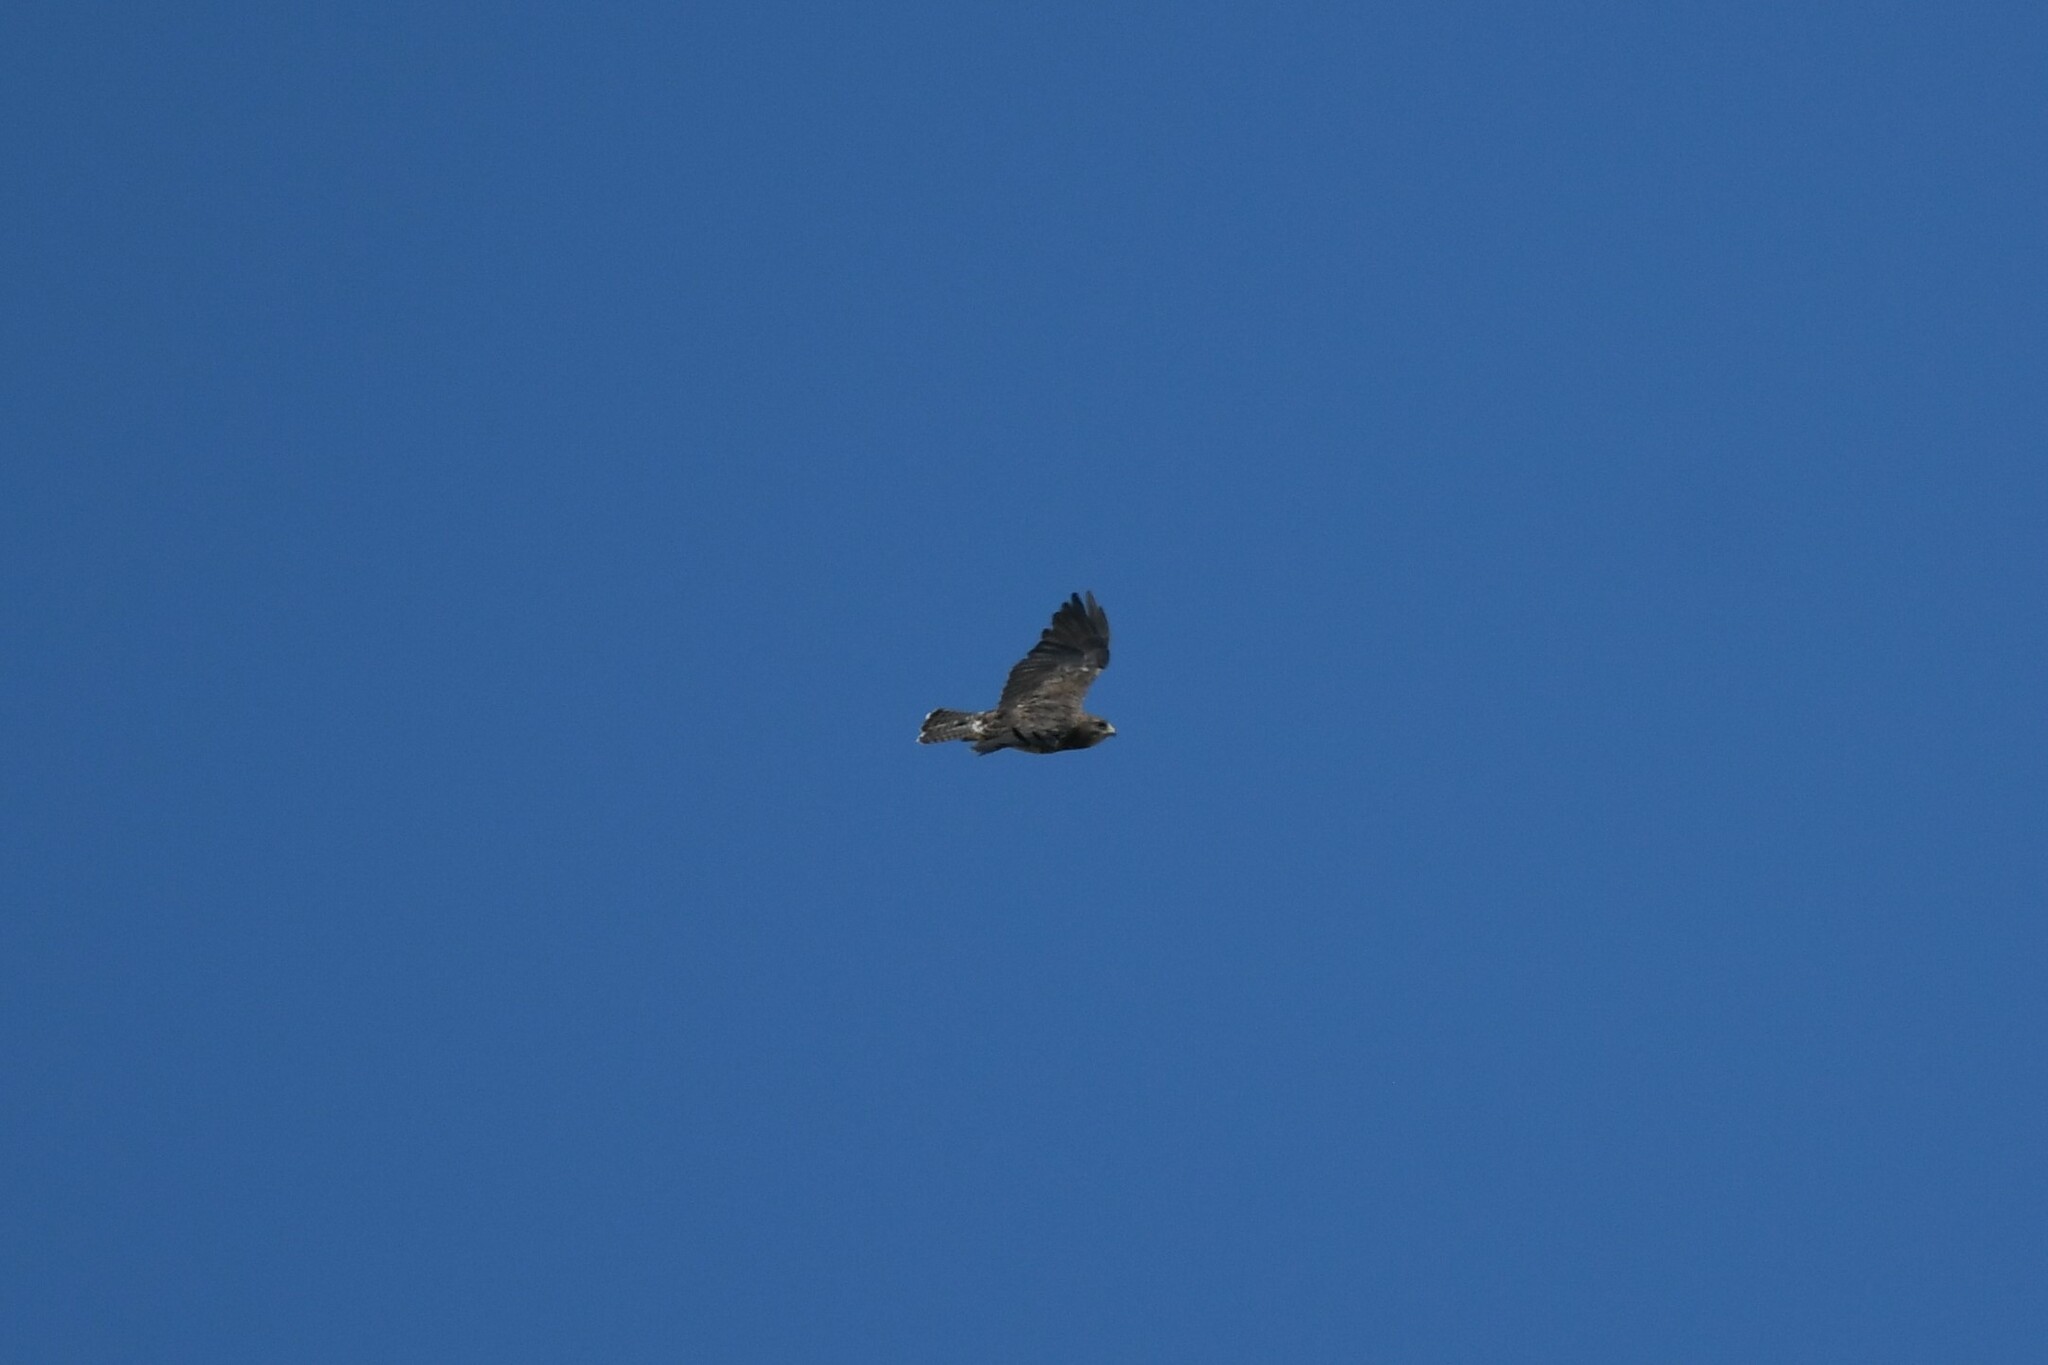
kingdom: Animalia
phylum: Chordata
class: Aves
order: Accipitriformes
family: Accipitridae
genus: Buteo
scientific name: Buteo swainsoni
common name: Swainson's hawk
